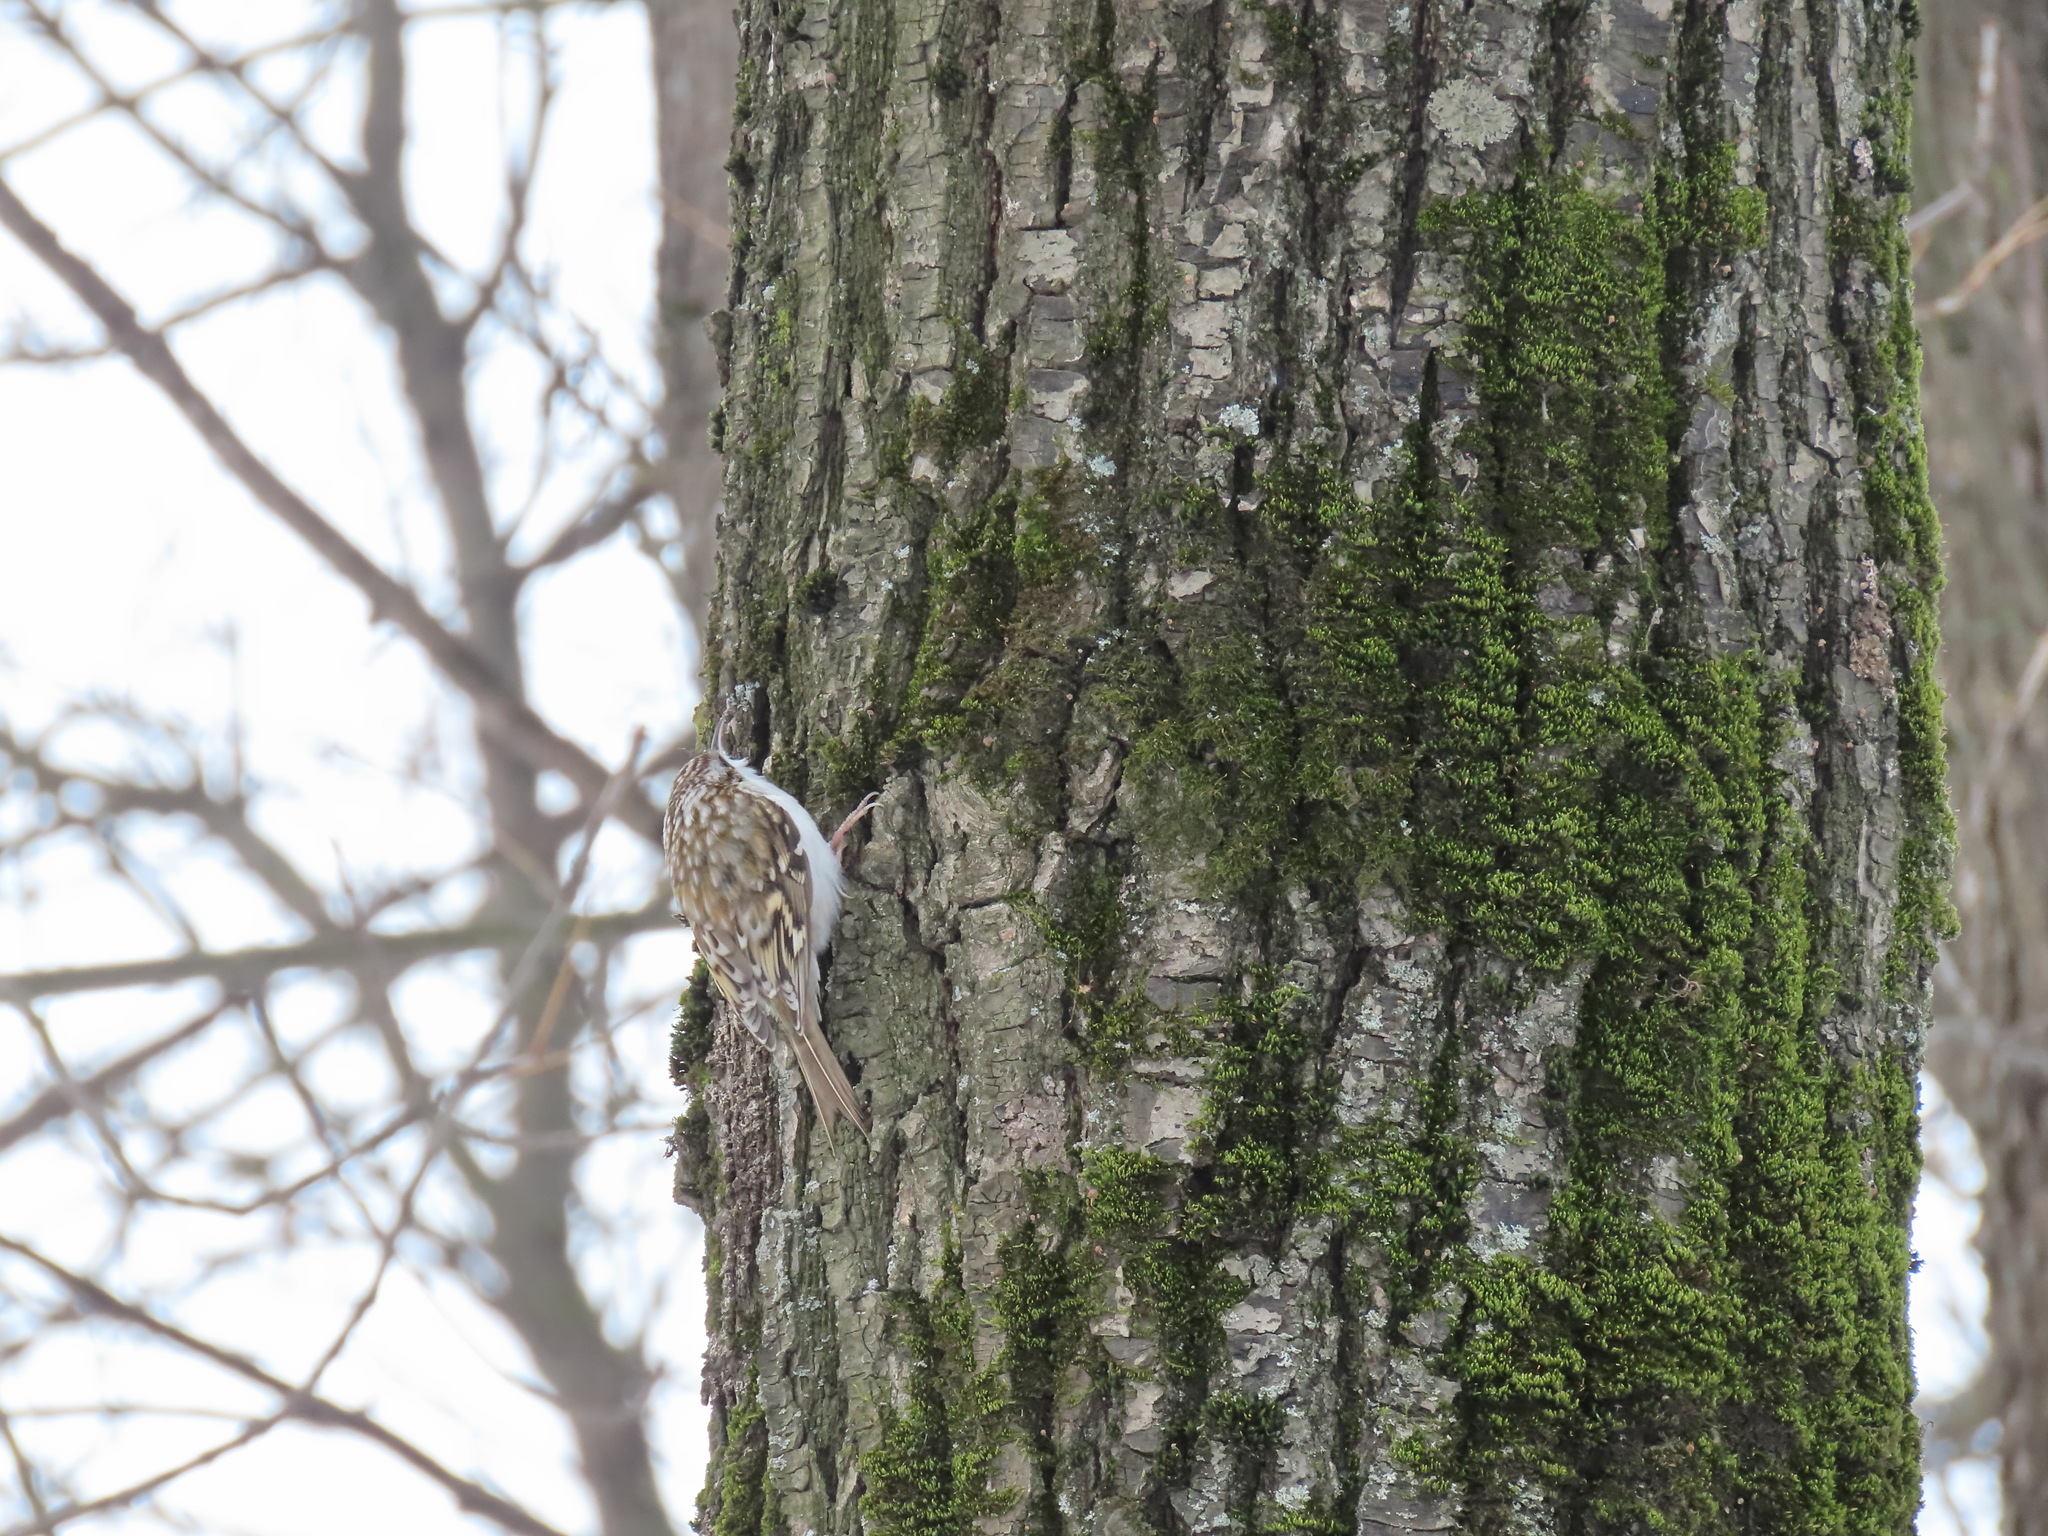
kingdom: Animalia
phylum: Chordata
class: Aves
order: Passeriformes
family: Certhiidae
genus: Certhia
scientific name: Certhia familiaris
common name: Eurasian treecreeper
